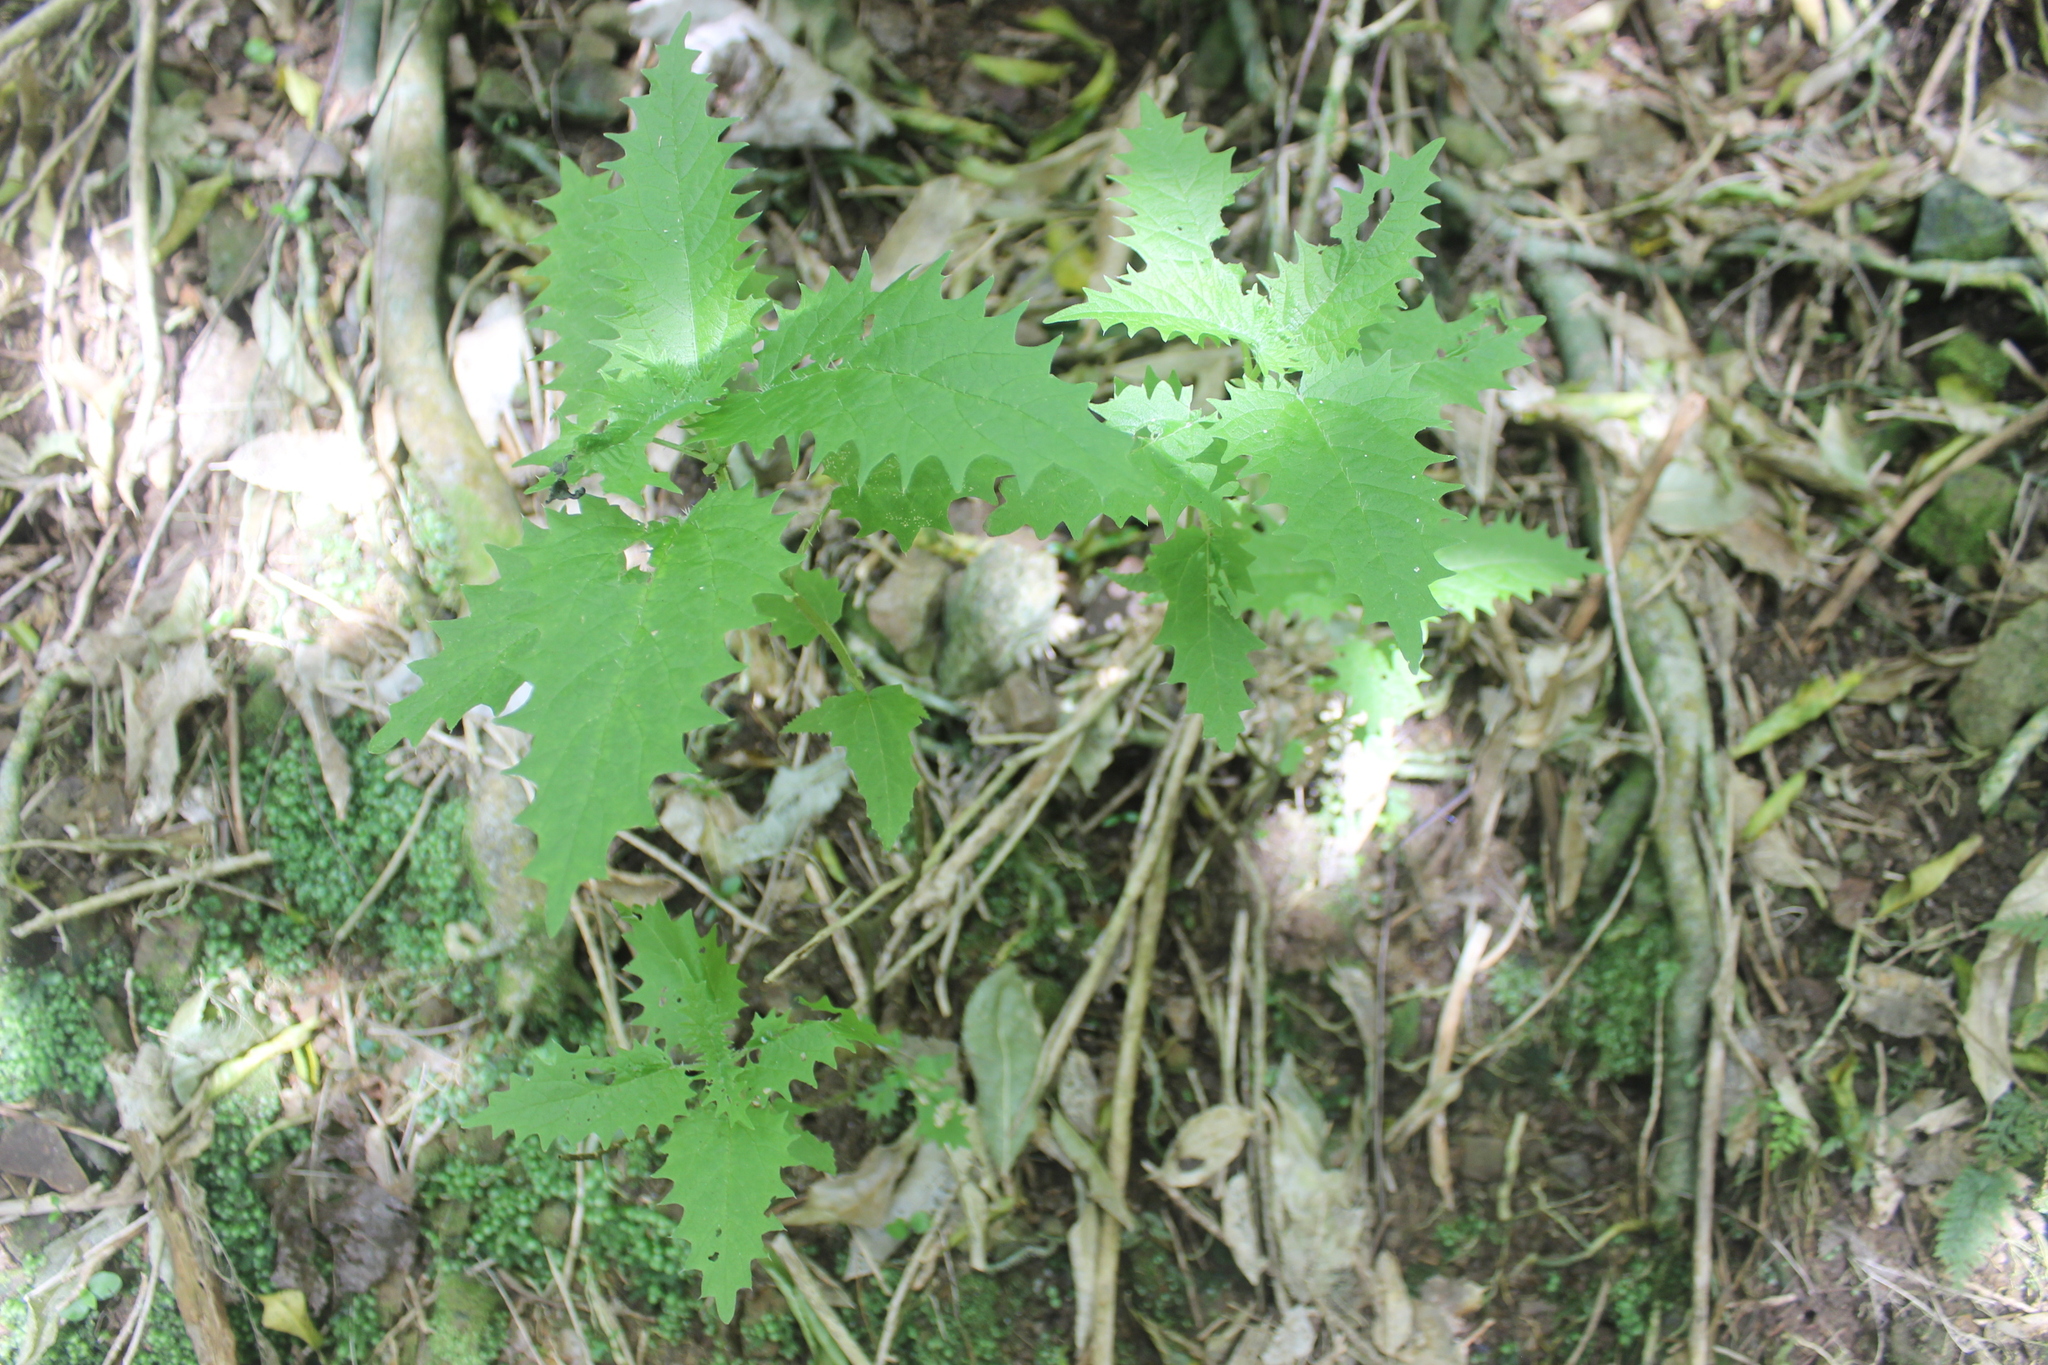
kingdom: Plantae
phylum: Tracheophyta
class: Magnoliopsida
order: Rosales
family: Urticaceae
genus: Urtica
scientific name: Urtica ferox
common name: Tree nettle
